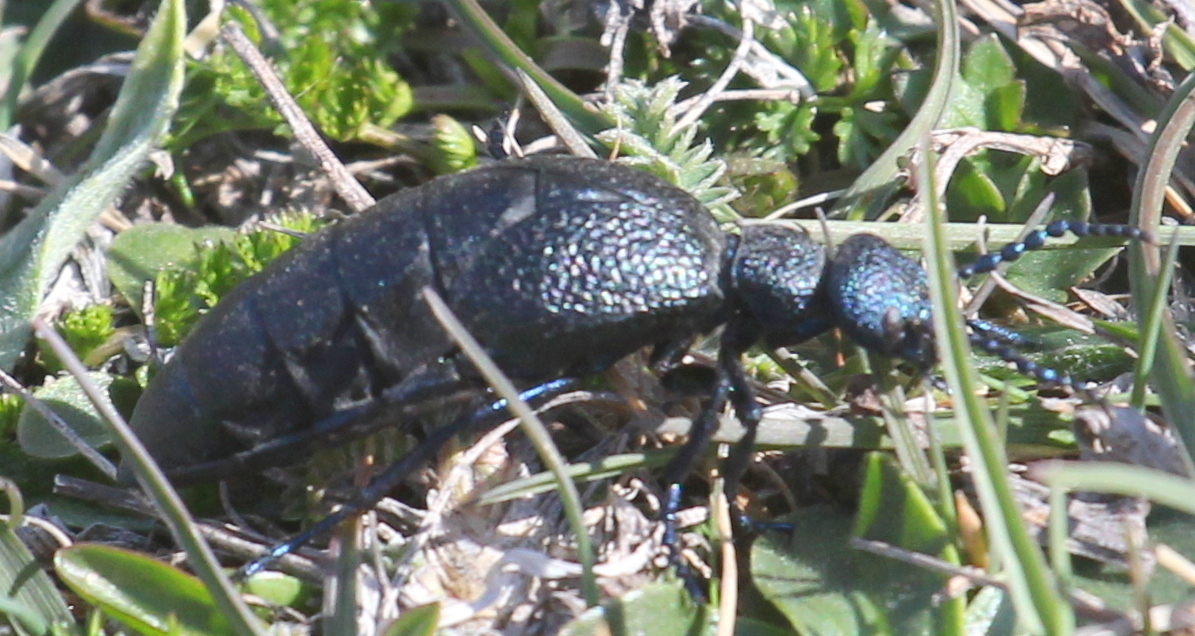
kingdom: Animalia
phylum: Arthropoda
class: Insecta
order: Coleoptera
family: Meloidae
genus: Meloe
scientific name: Meloe proscarabaeus
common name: Black oil-beetle
